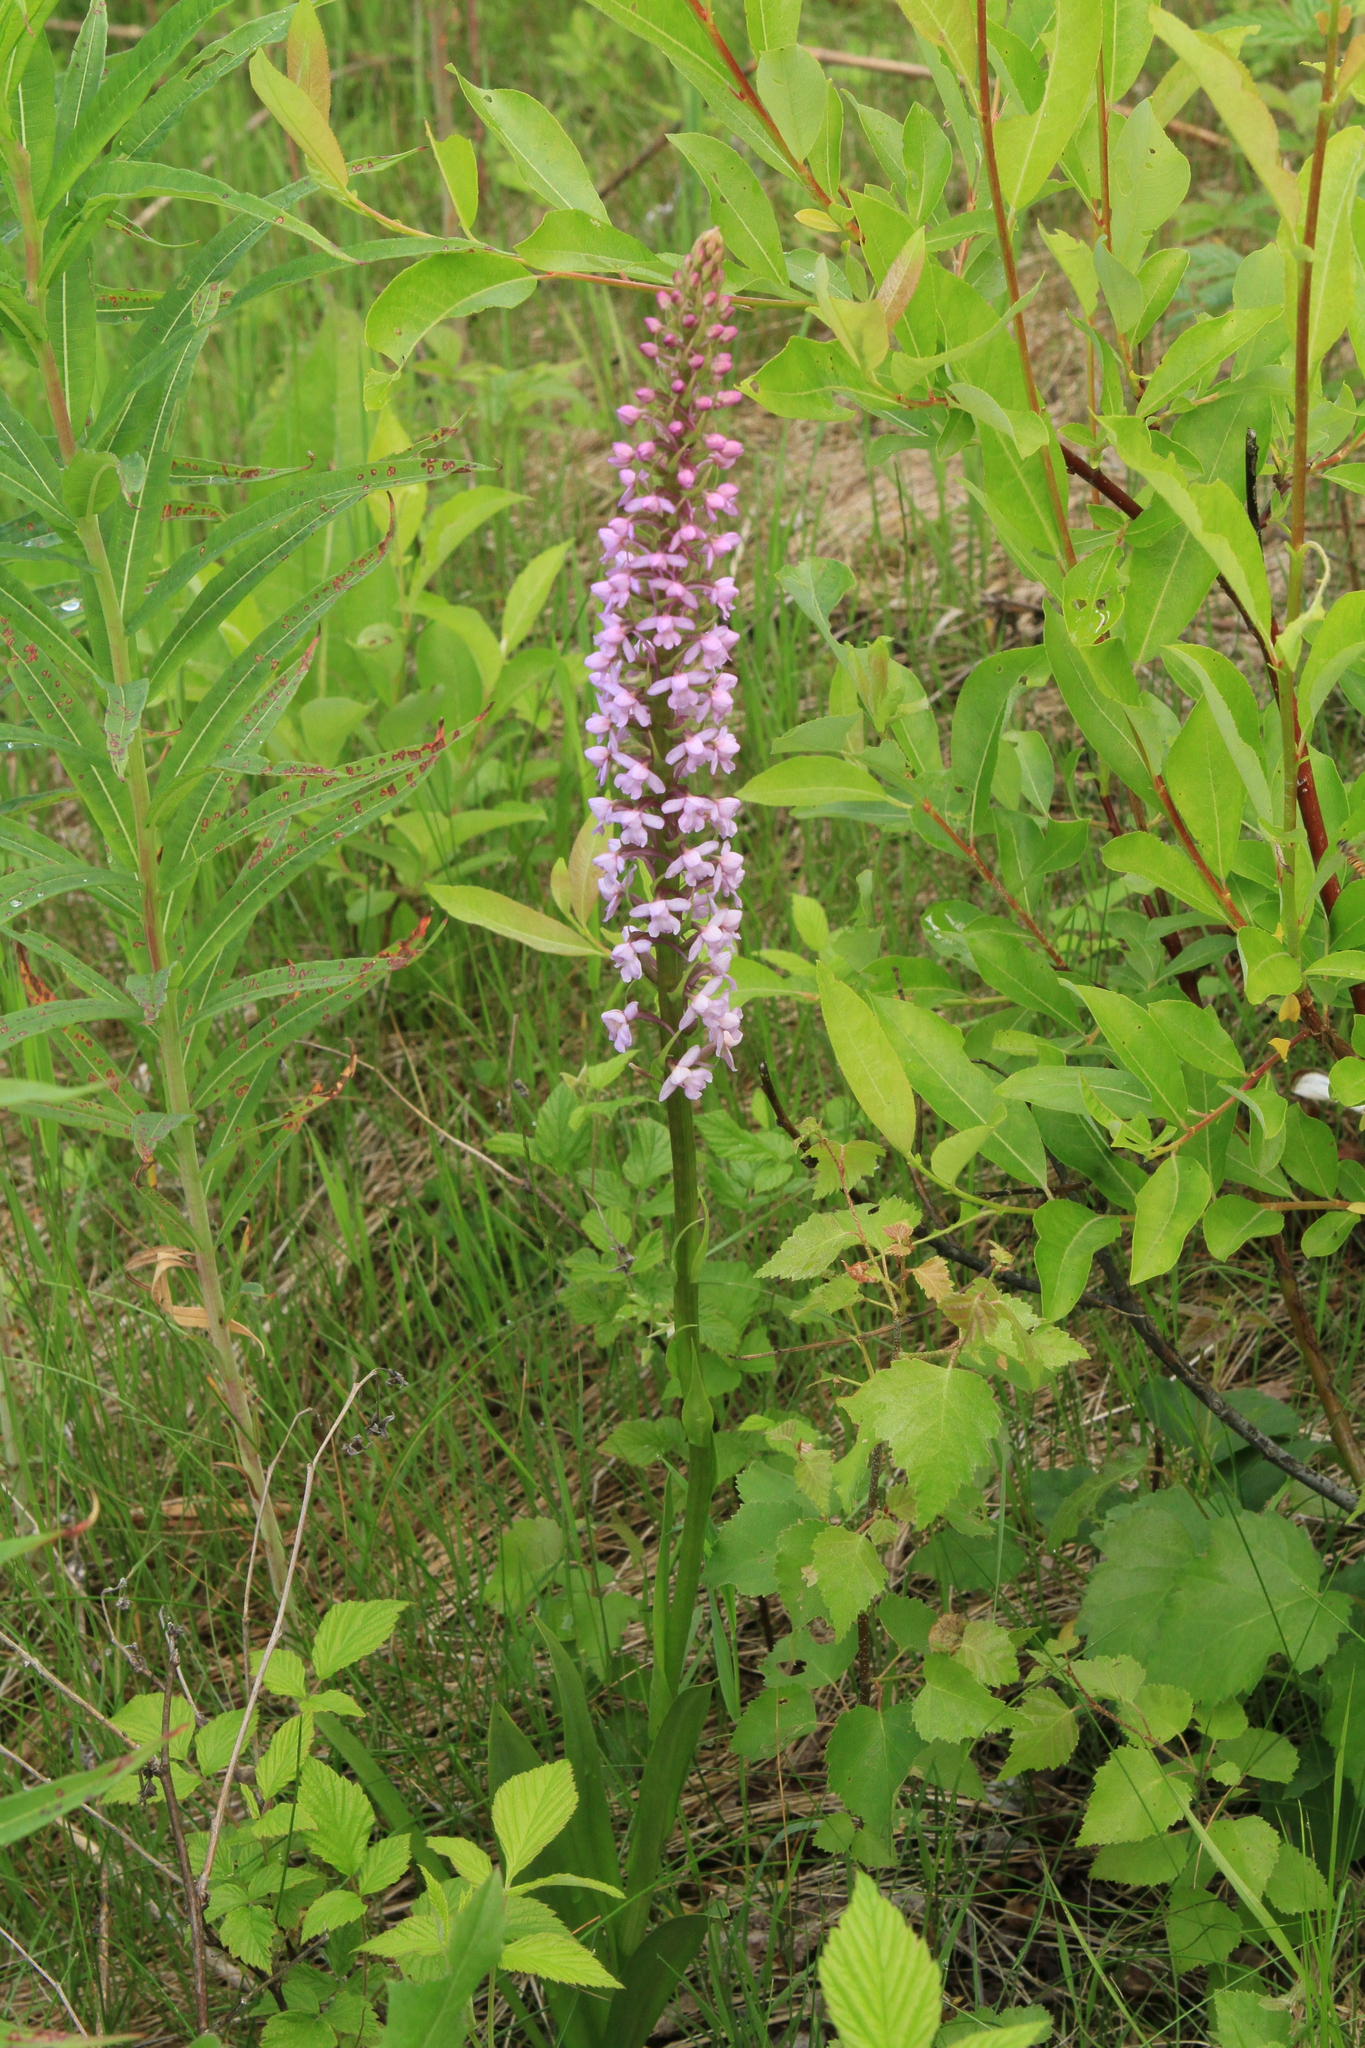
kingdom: Plantae
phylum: Tracheophyta
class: Liliopsida
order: Asparagales
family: Orchidaceae
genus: Gymnadenia
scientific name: Gymnadenia conopsea
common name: Fragrant orchid
